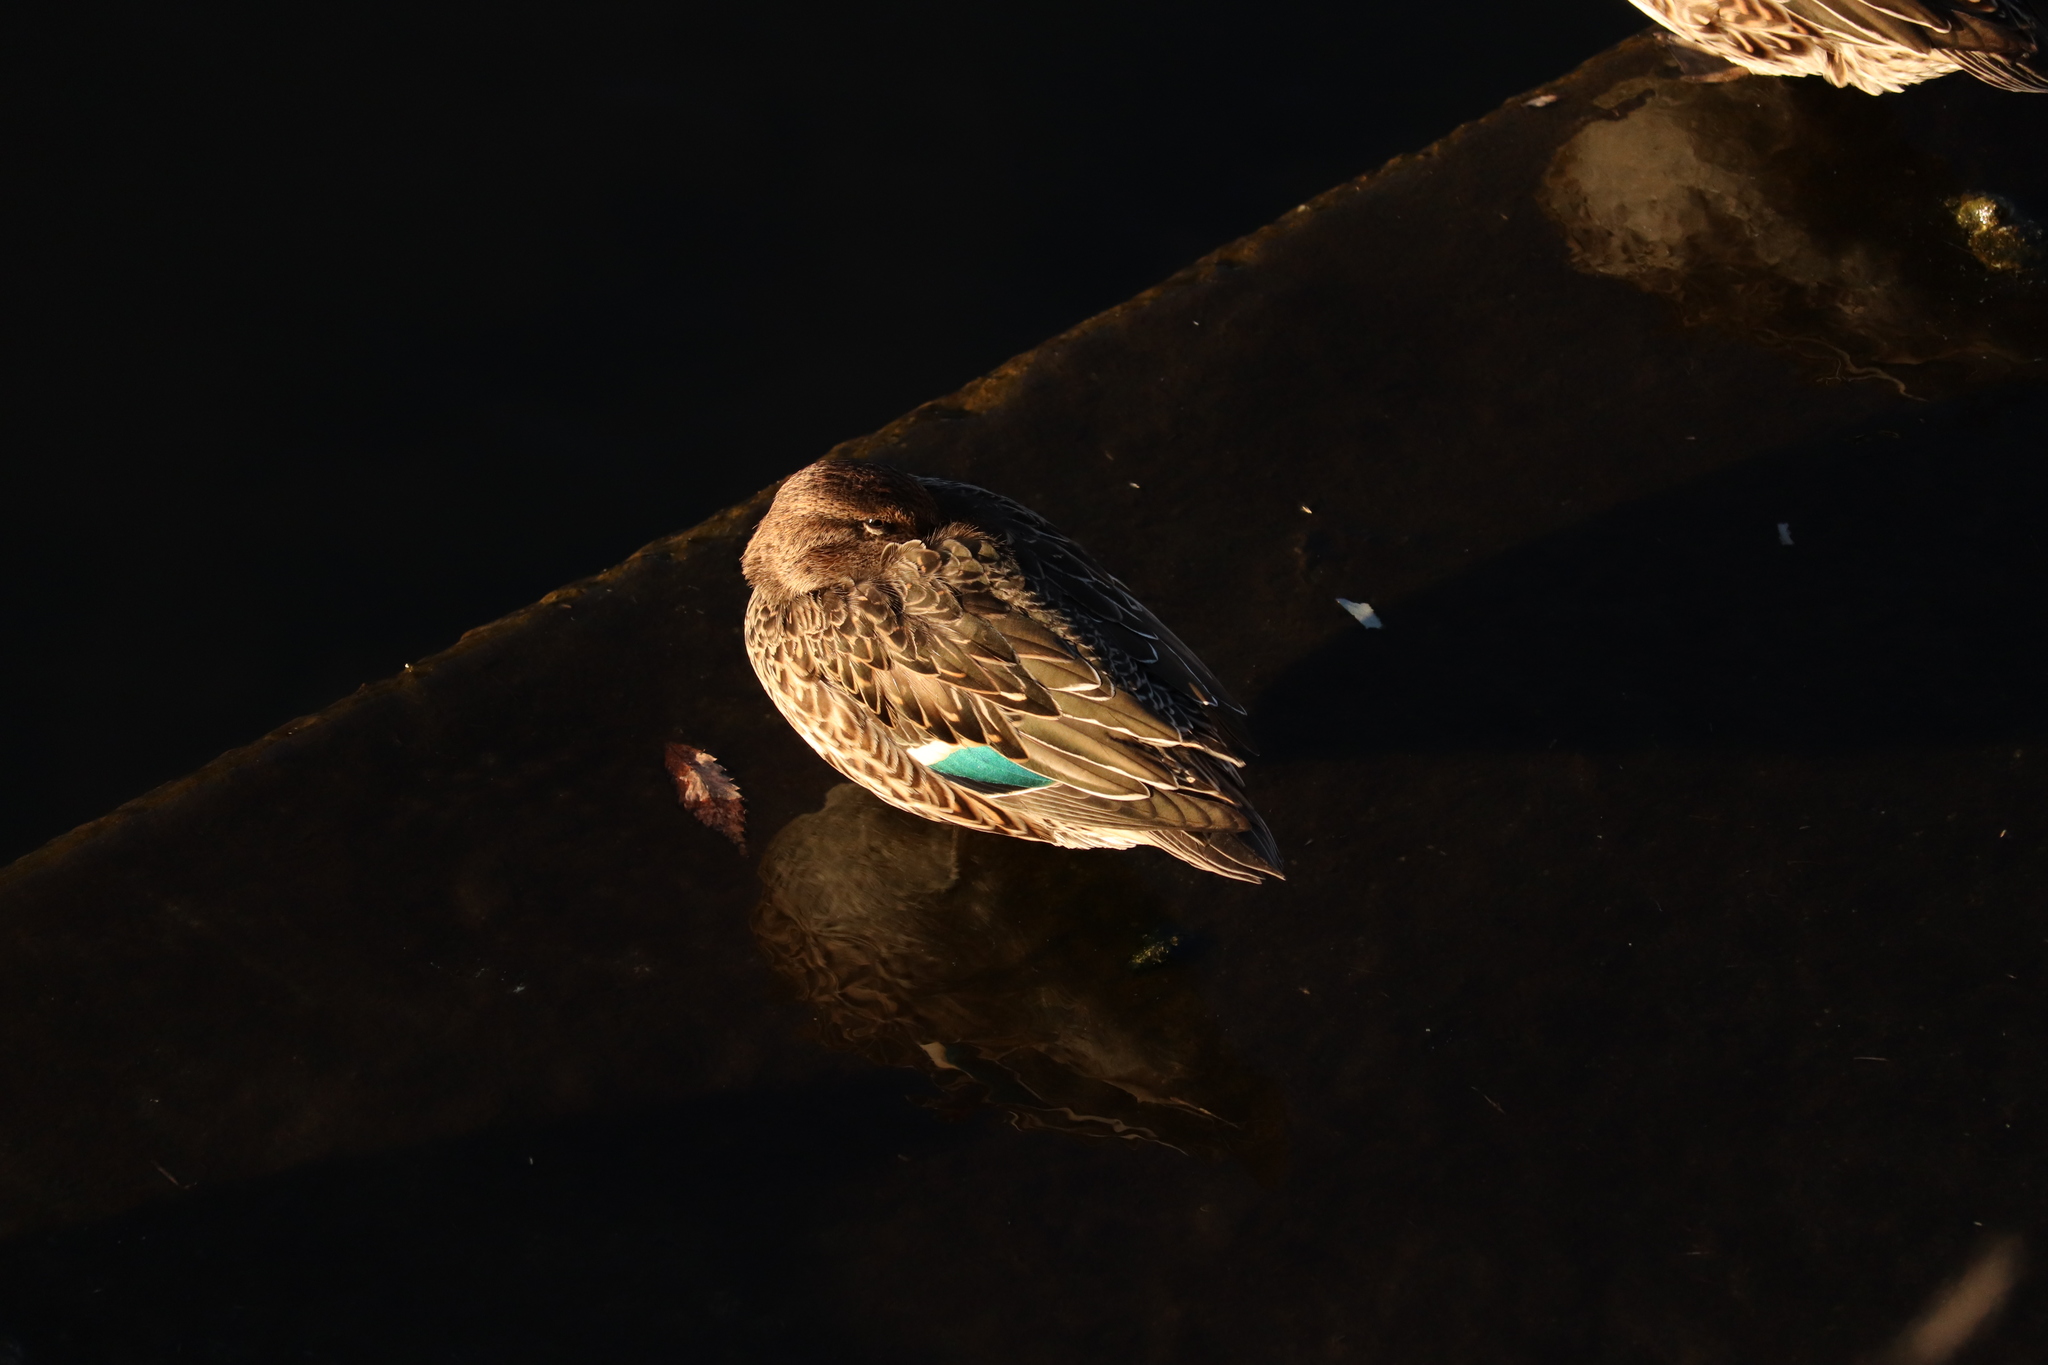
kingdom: Animalia
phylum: Chordata
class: Aves
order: Anseriformes
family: Anatidae
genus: Anas
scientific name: Anas crecca
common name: Eurasian teal
